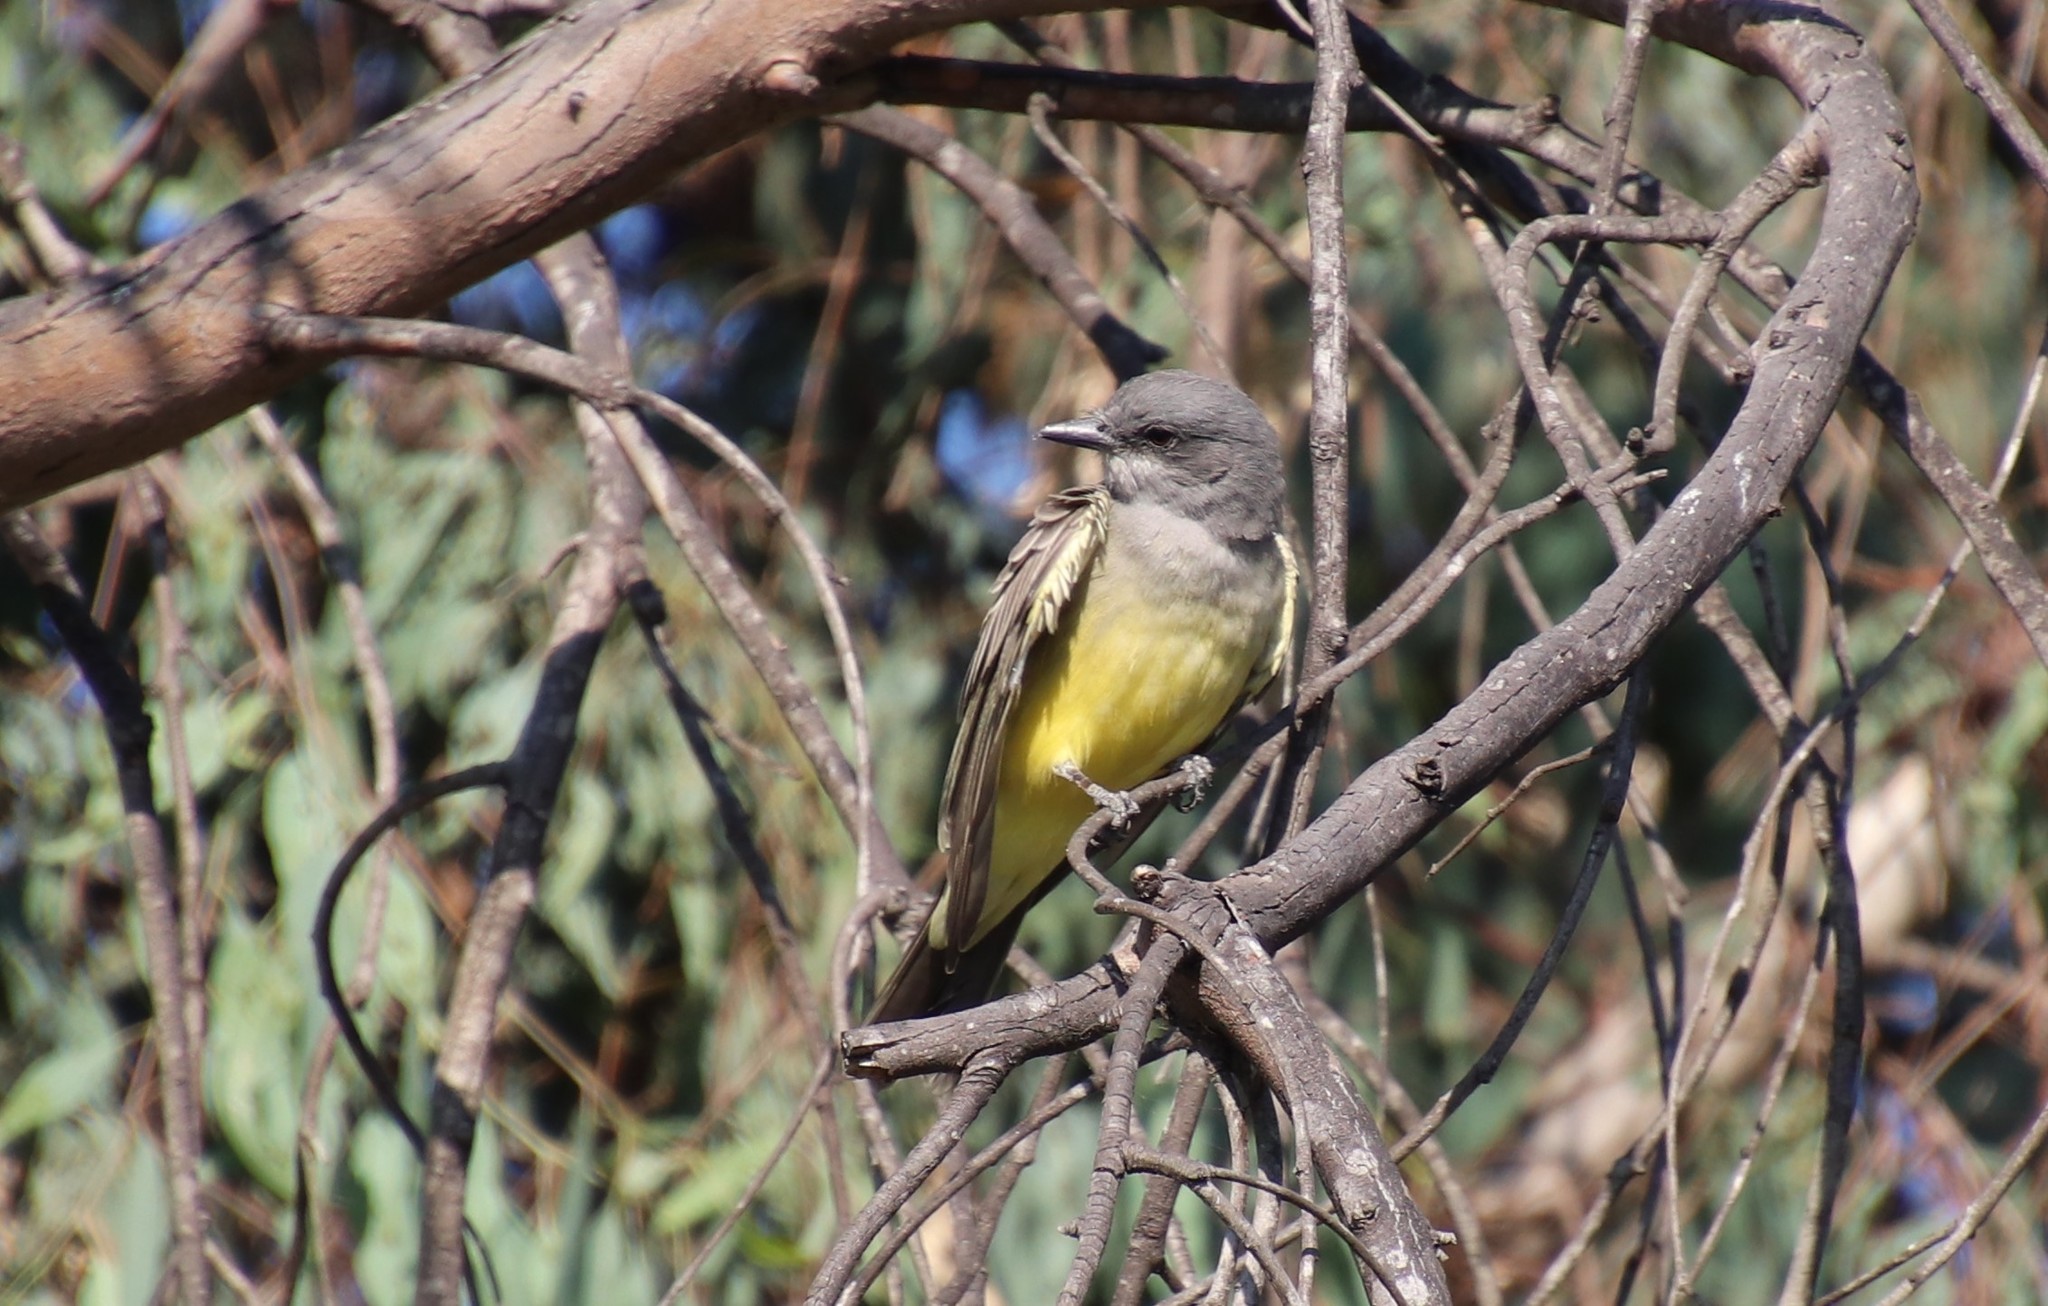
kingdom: Animalia
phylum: Chordata
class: Aves
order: Passeriformes
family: Tyrannidae
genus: Tyrannus
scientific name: Tyrannus vociferans
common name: Cassin's kingbird
